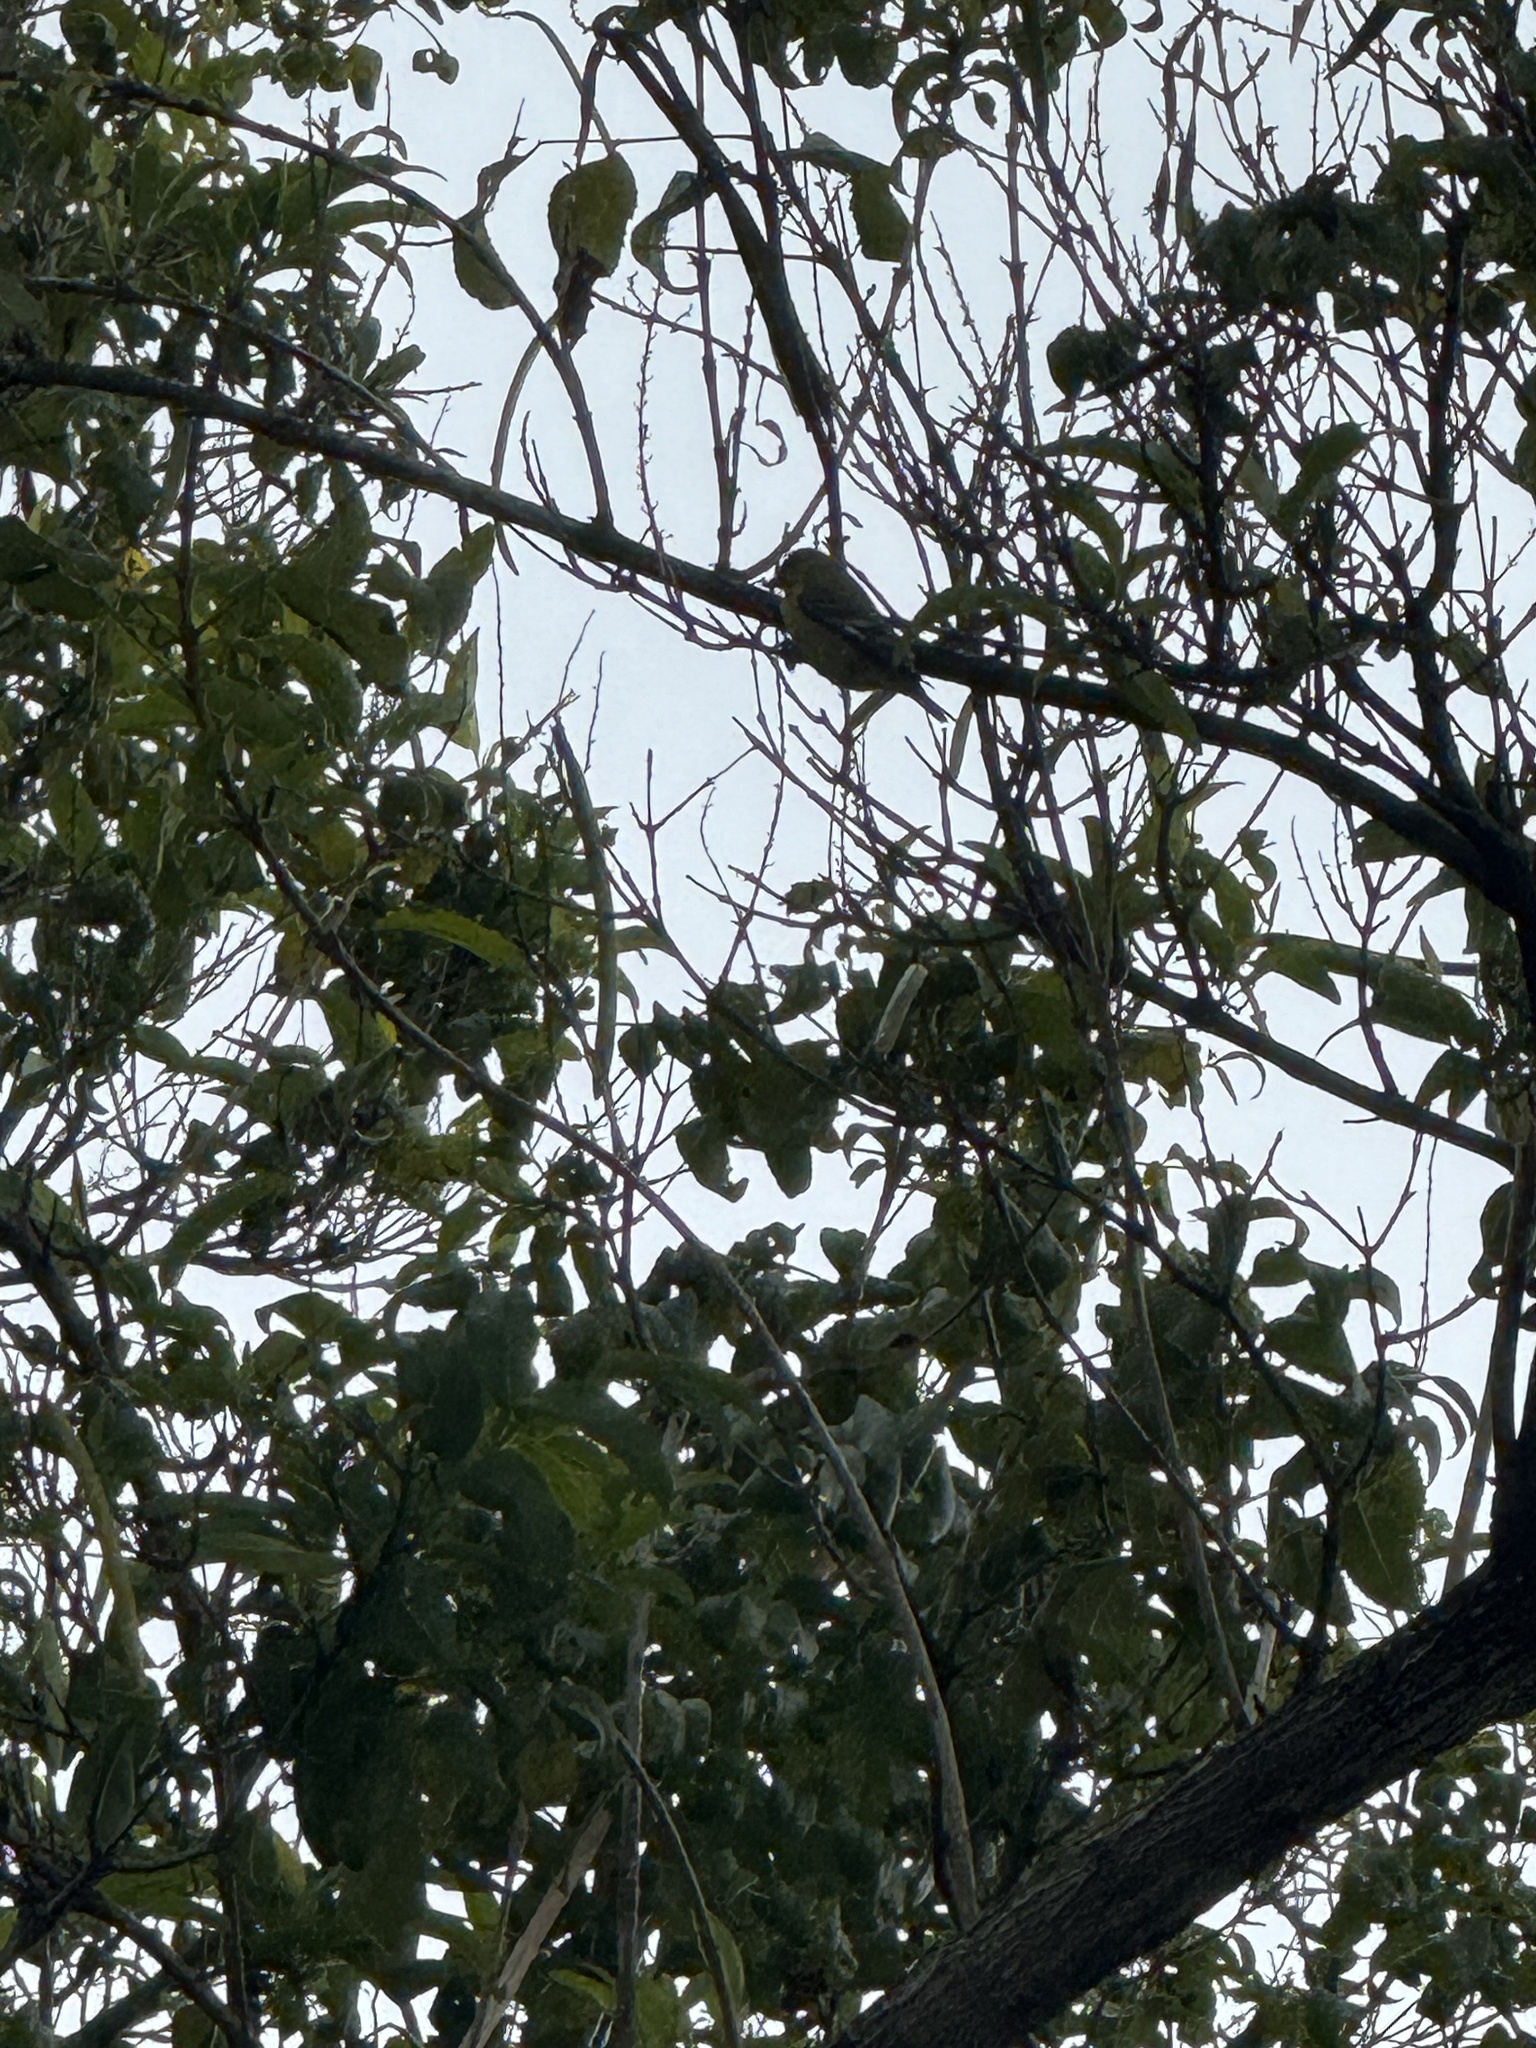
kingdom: Animalia
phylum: Chordata
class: Aves
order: Passeriformes
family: Fringillidae
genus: Spinus
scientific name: Spinus psaltria
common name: Lesser goldfinch
